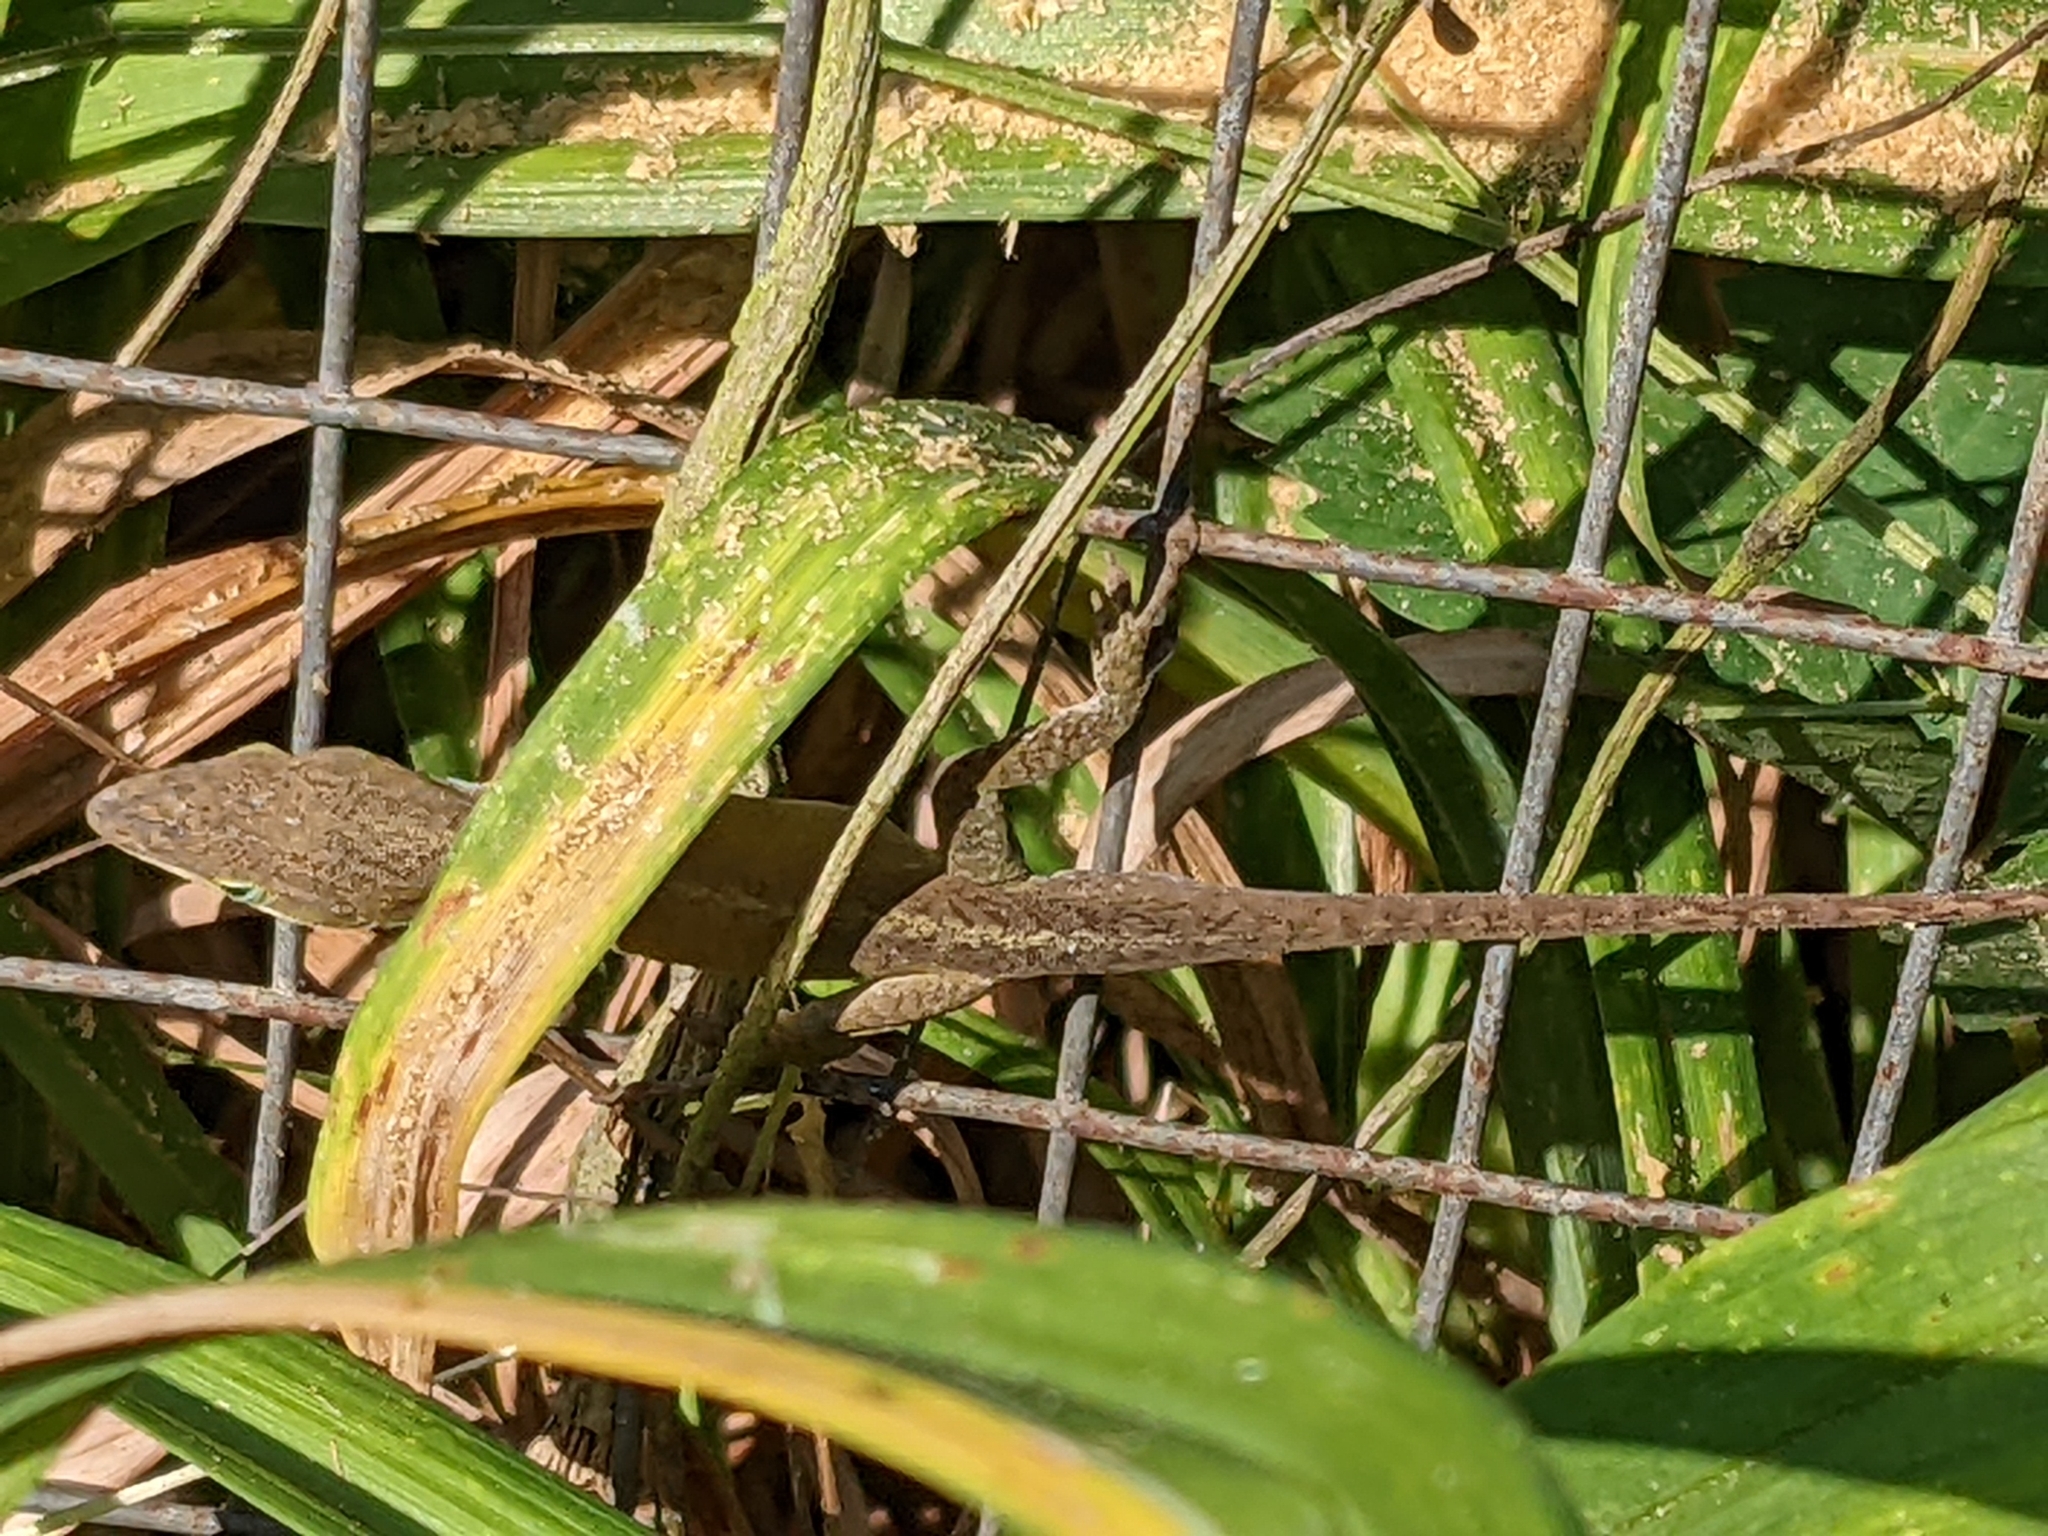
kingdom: Animalia
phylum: Chordata
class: Squamata
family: Dactyloidae
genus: Anolis
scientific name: Anolis carolinensis
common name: Green anole
